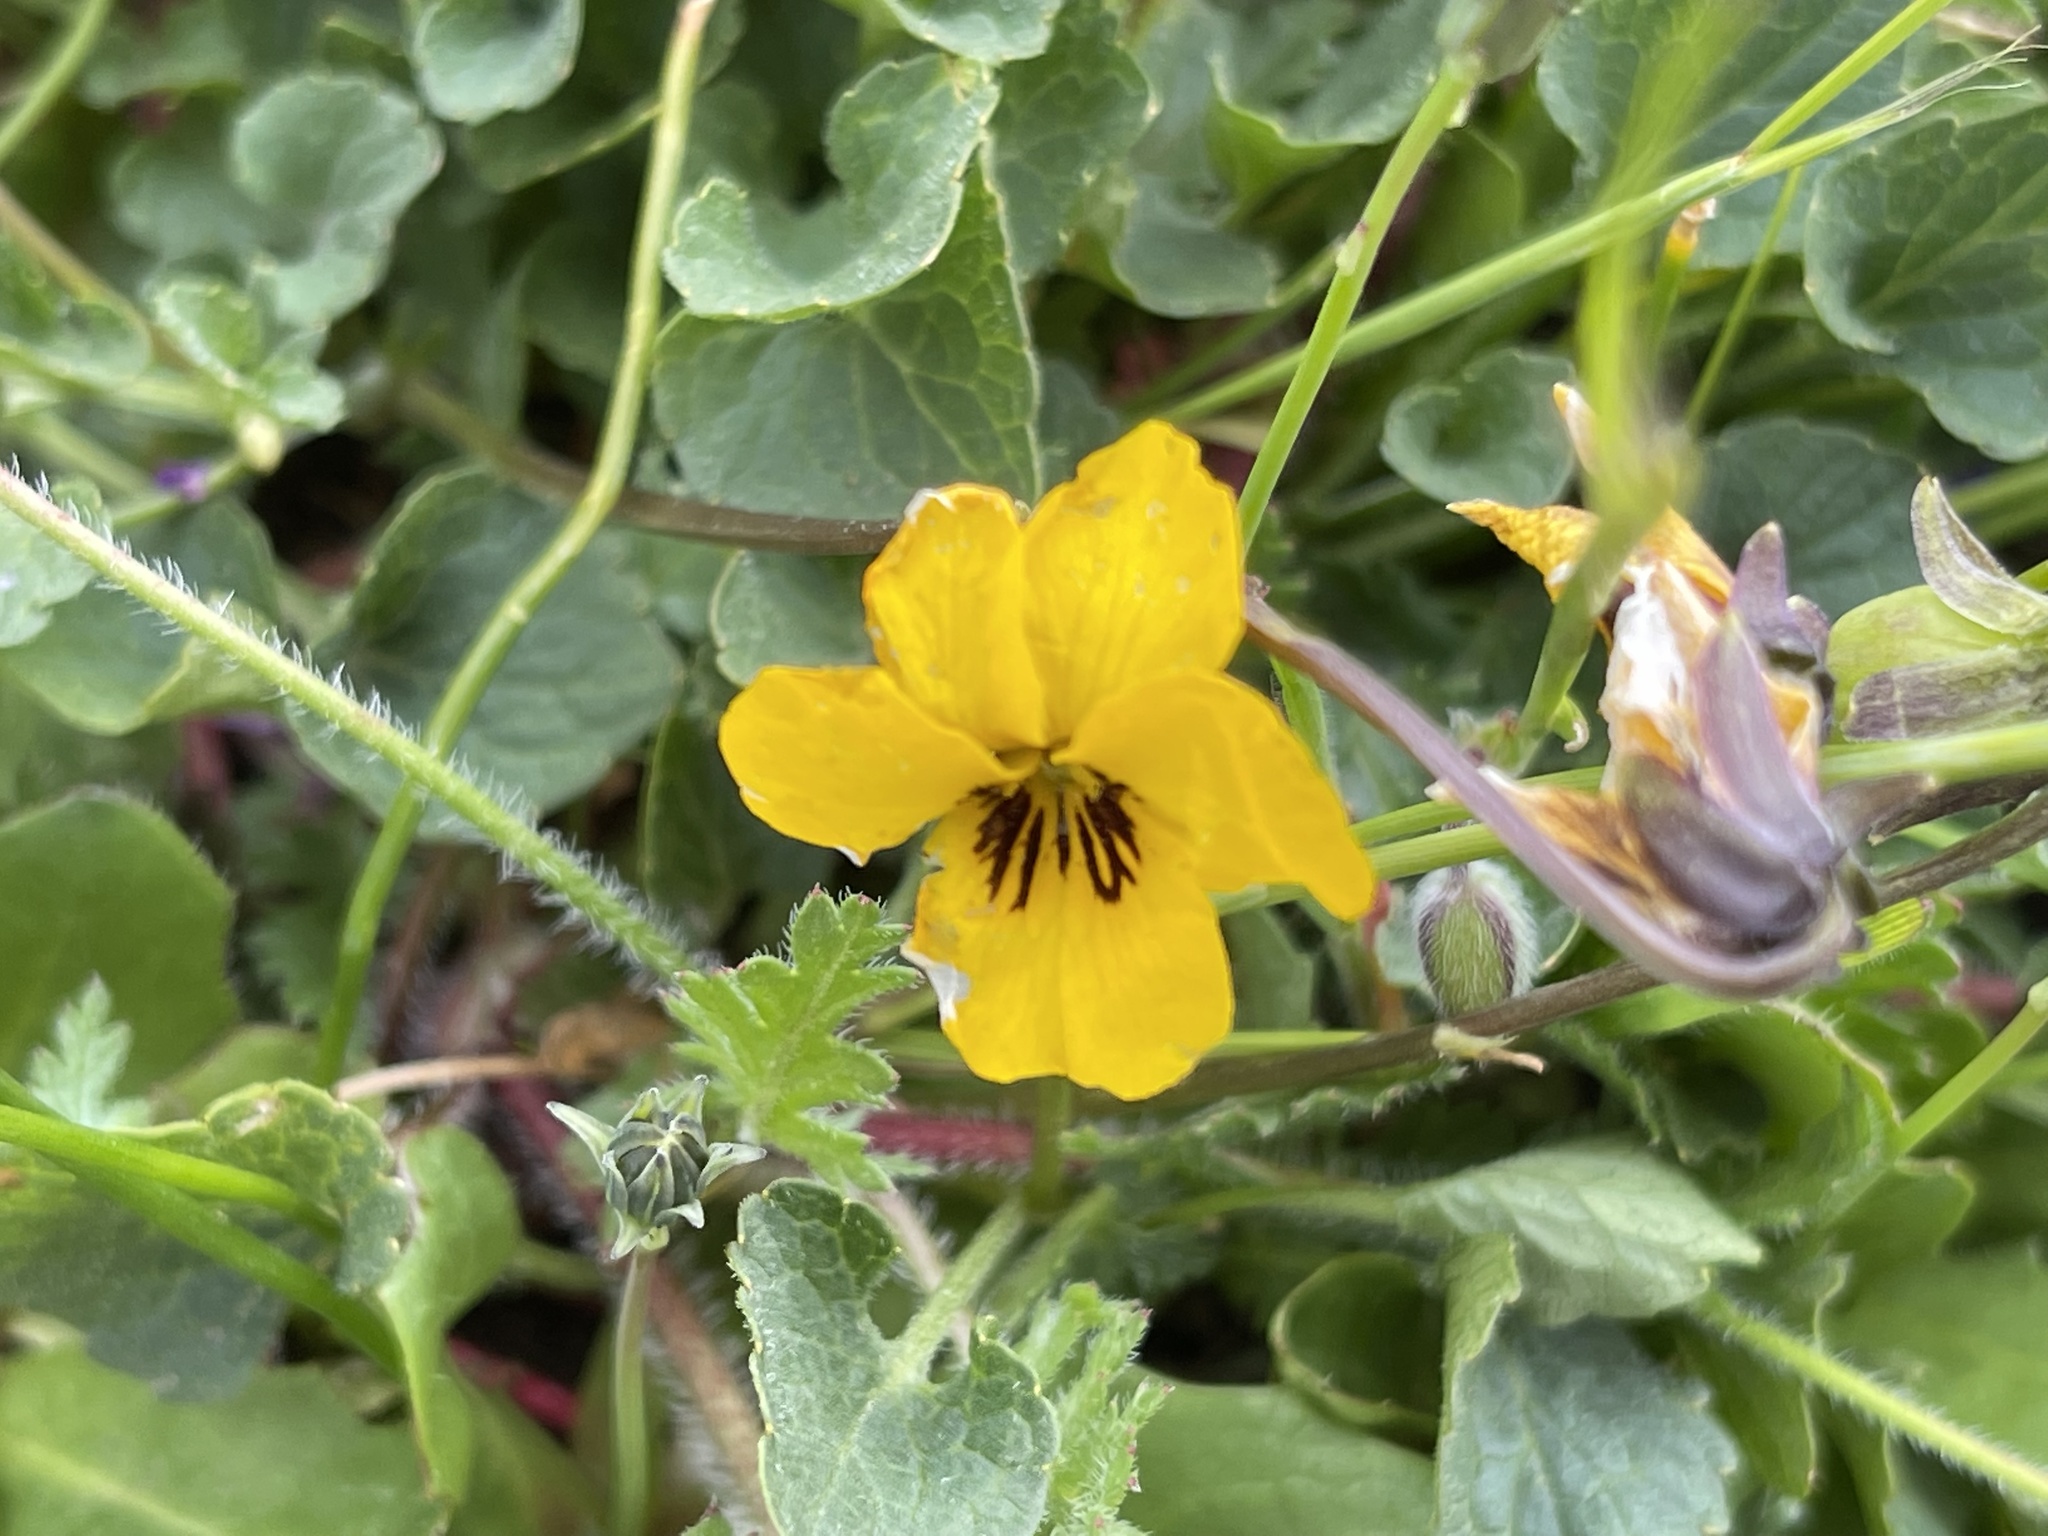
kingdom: Plantae
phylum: Tracheophyta
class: Magnoliopsida
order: Malpighiales
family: Violaceae
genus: Viola
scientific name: Viola pedunculata
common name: California golden violet
